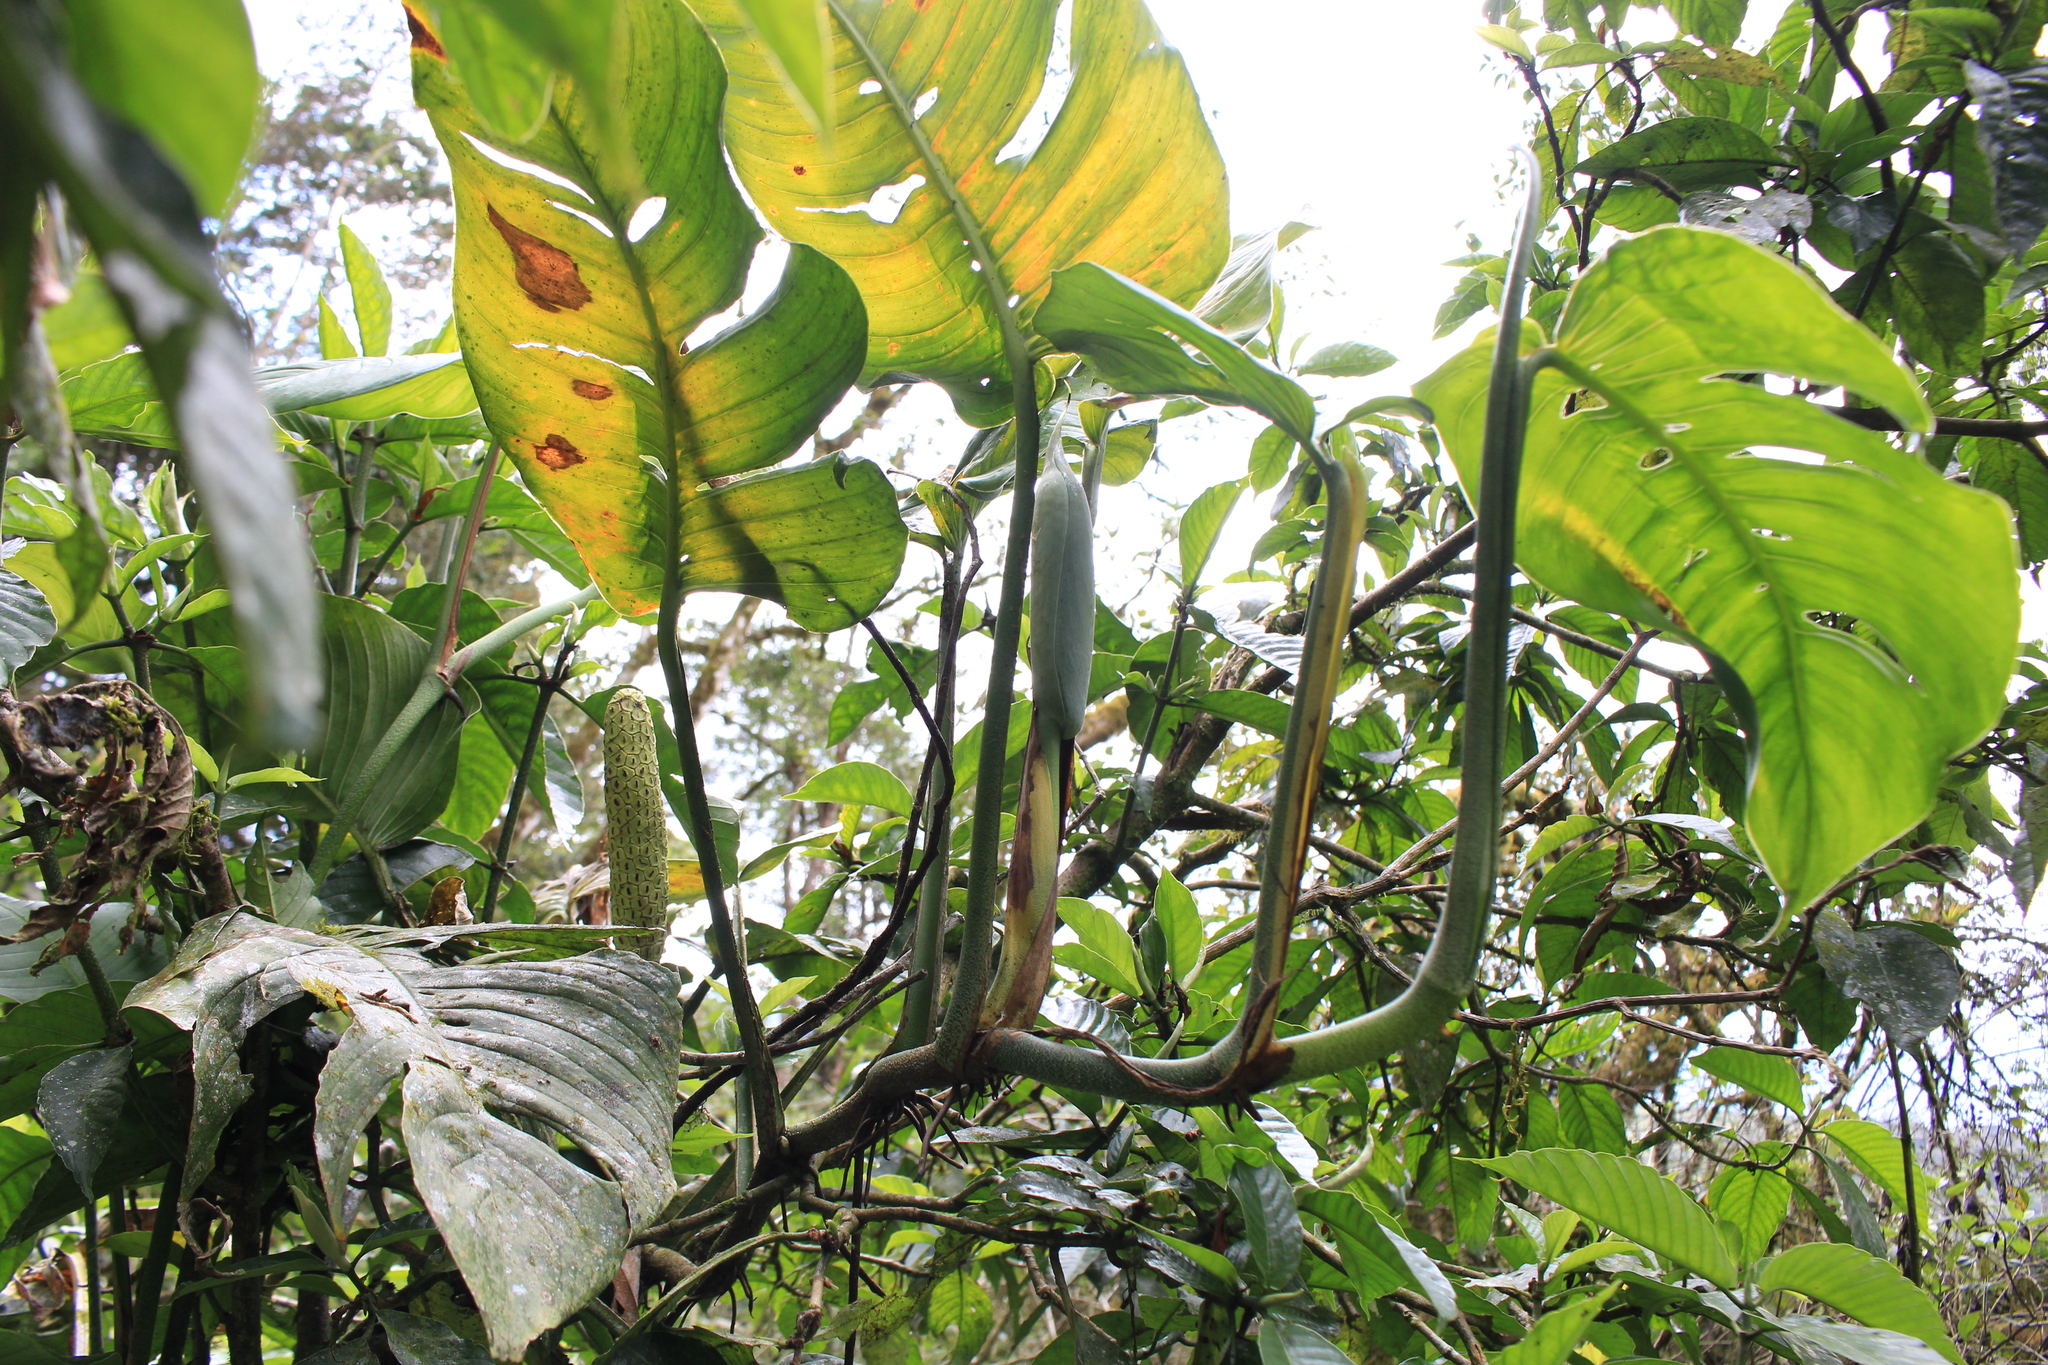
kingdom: Plantae
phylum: Tracheophyta
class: Liliopsida
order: Alismatales
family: Araceae
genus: Monstera
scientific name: Monstera adansonii
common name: Tarovine
